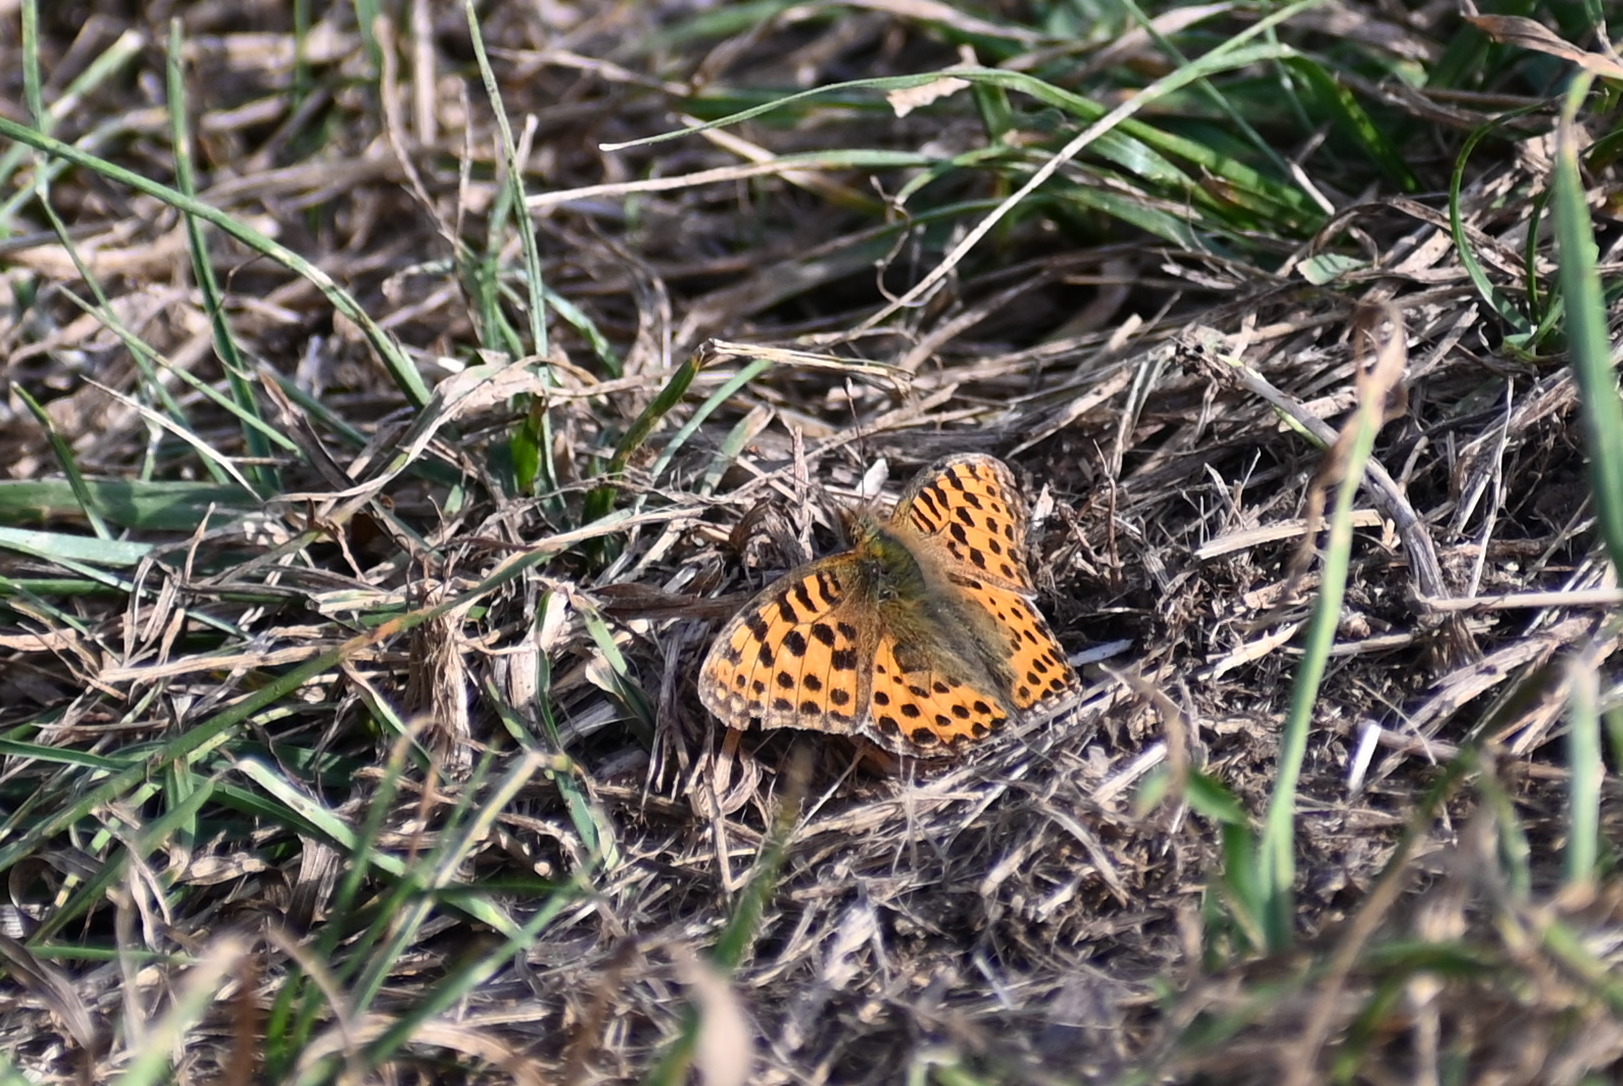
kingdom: Animalia
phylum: Arthropoda
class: Insecta
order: Lepidoptera
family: Nymphalidae
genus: Issoria
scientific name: Issoria lathonia
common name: Queen of spain fritillary
